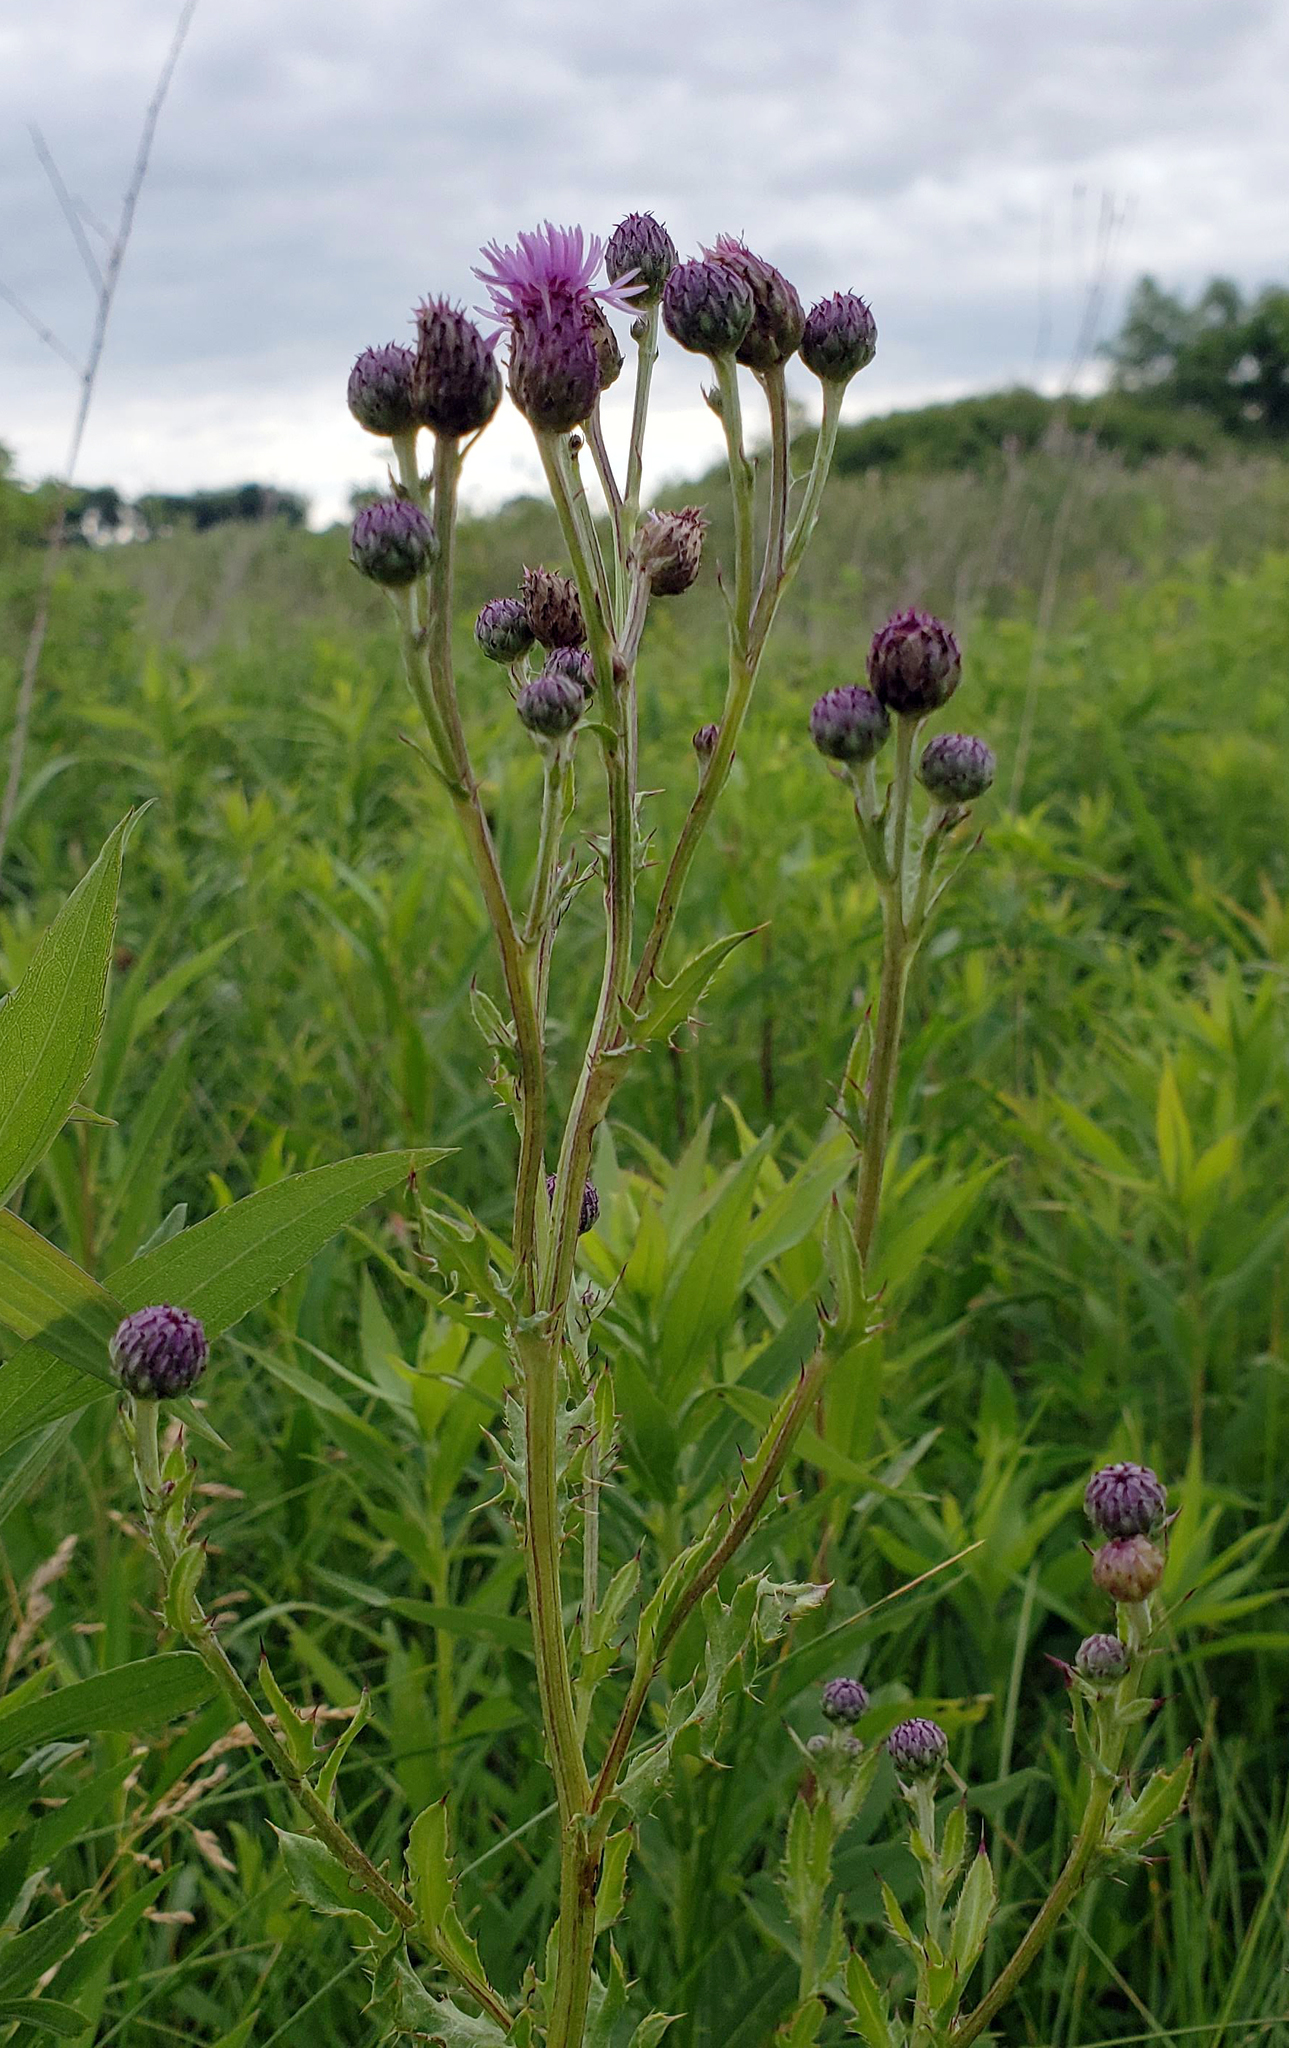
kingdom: Plantae
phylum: Tracheophyta
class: Magnoliopsida
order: Asterales
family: Asteraceae
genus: Cirsium
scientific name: Cirsium arvense
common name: Creeping thistle
